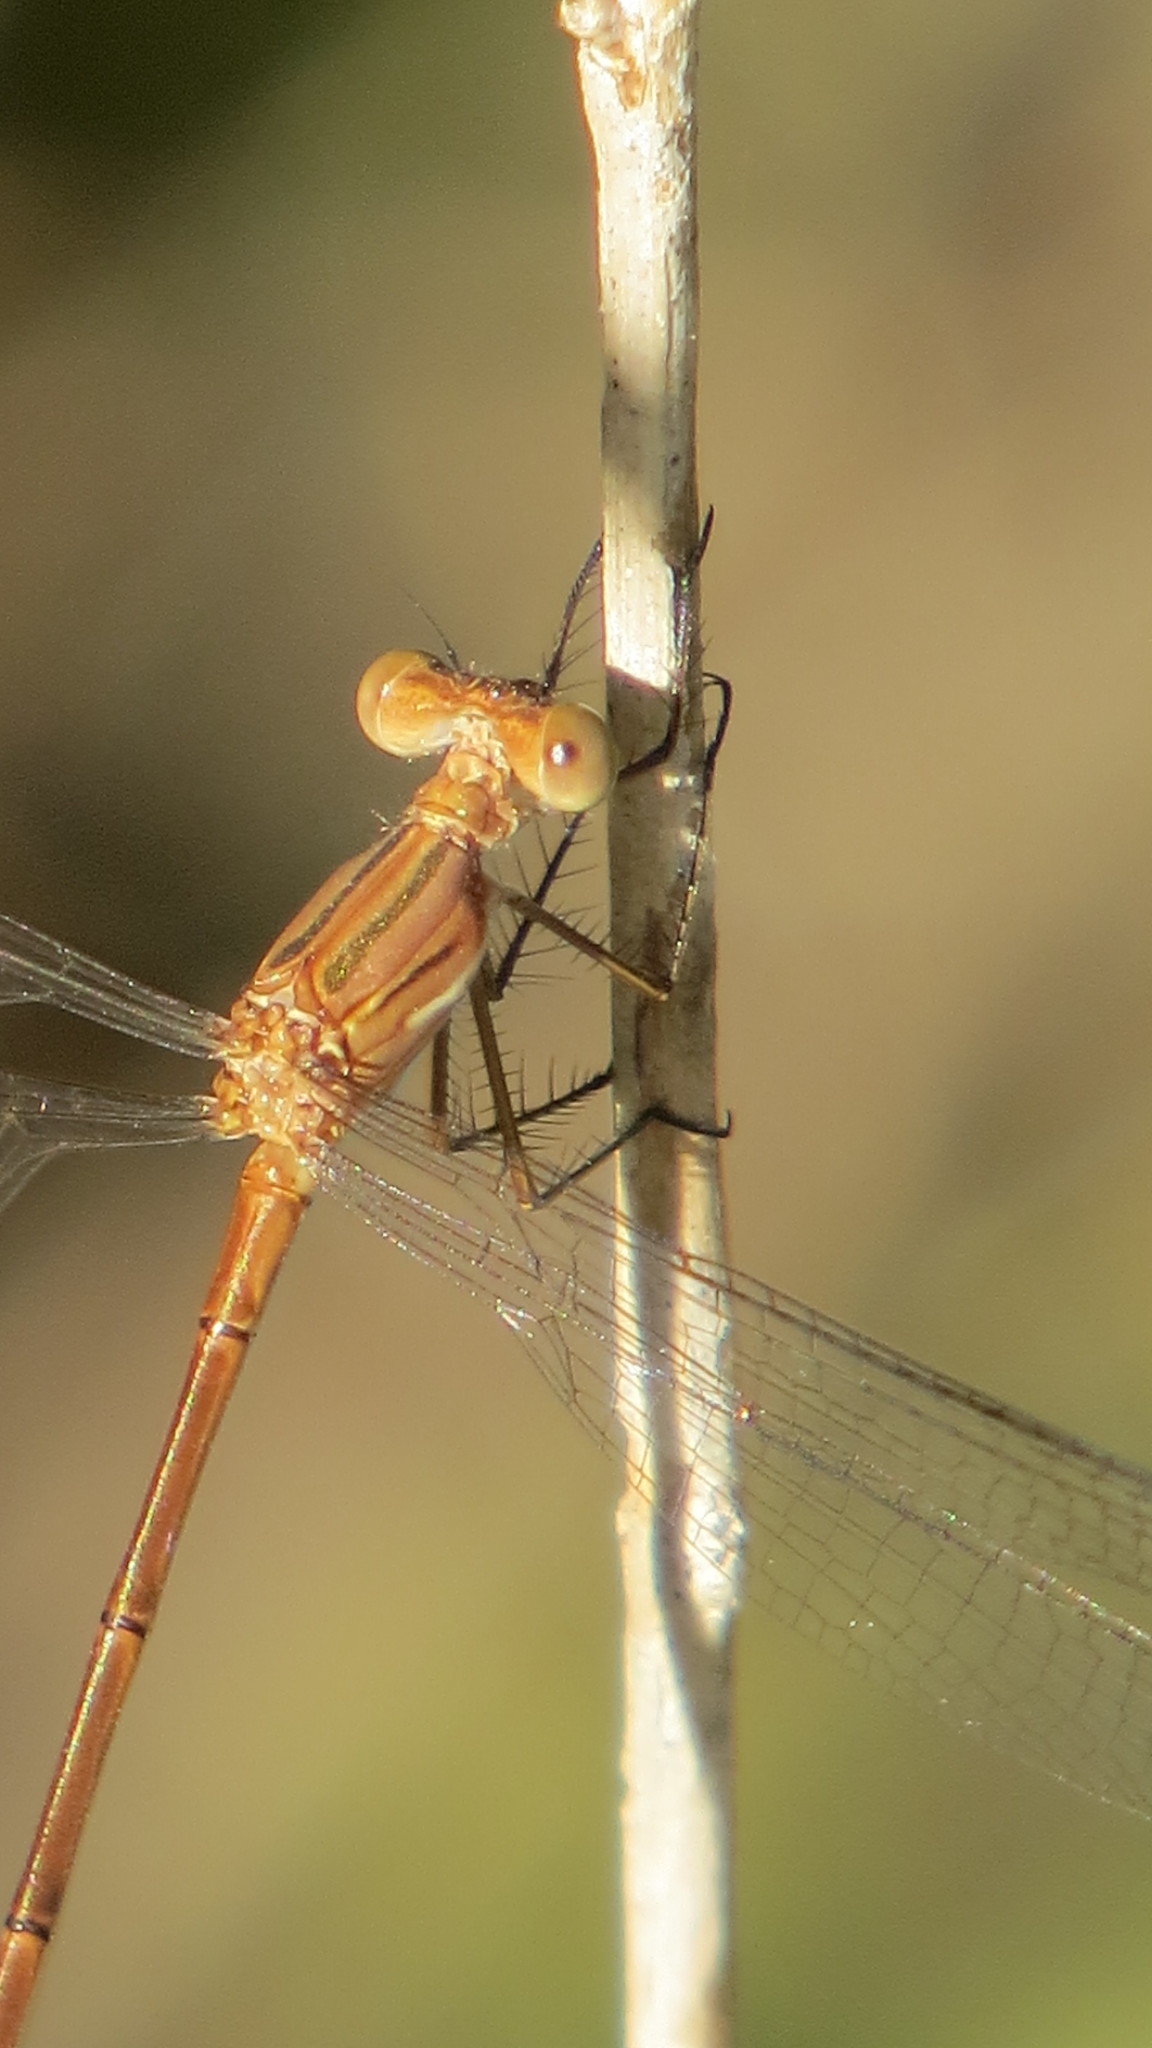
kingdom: Animalia
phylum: Arthropoda
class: Insecta
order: Odonata
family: Lestidae
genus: Lestes
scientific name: Lestes forficula
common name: Rainpool spreadwing
